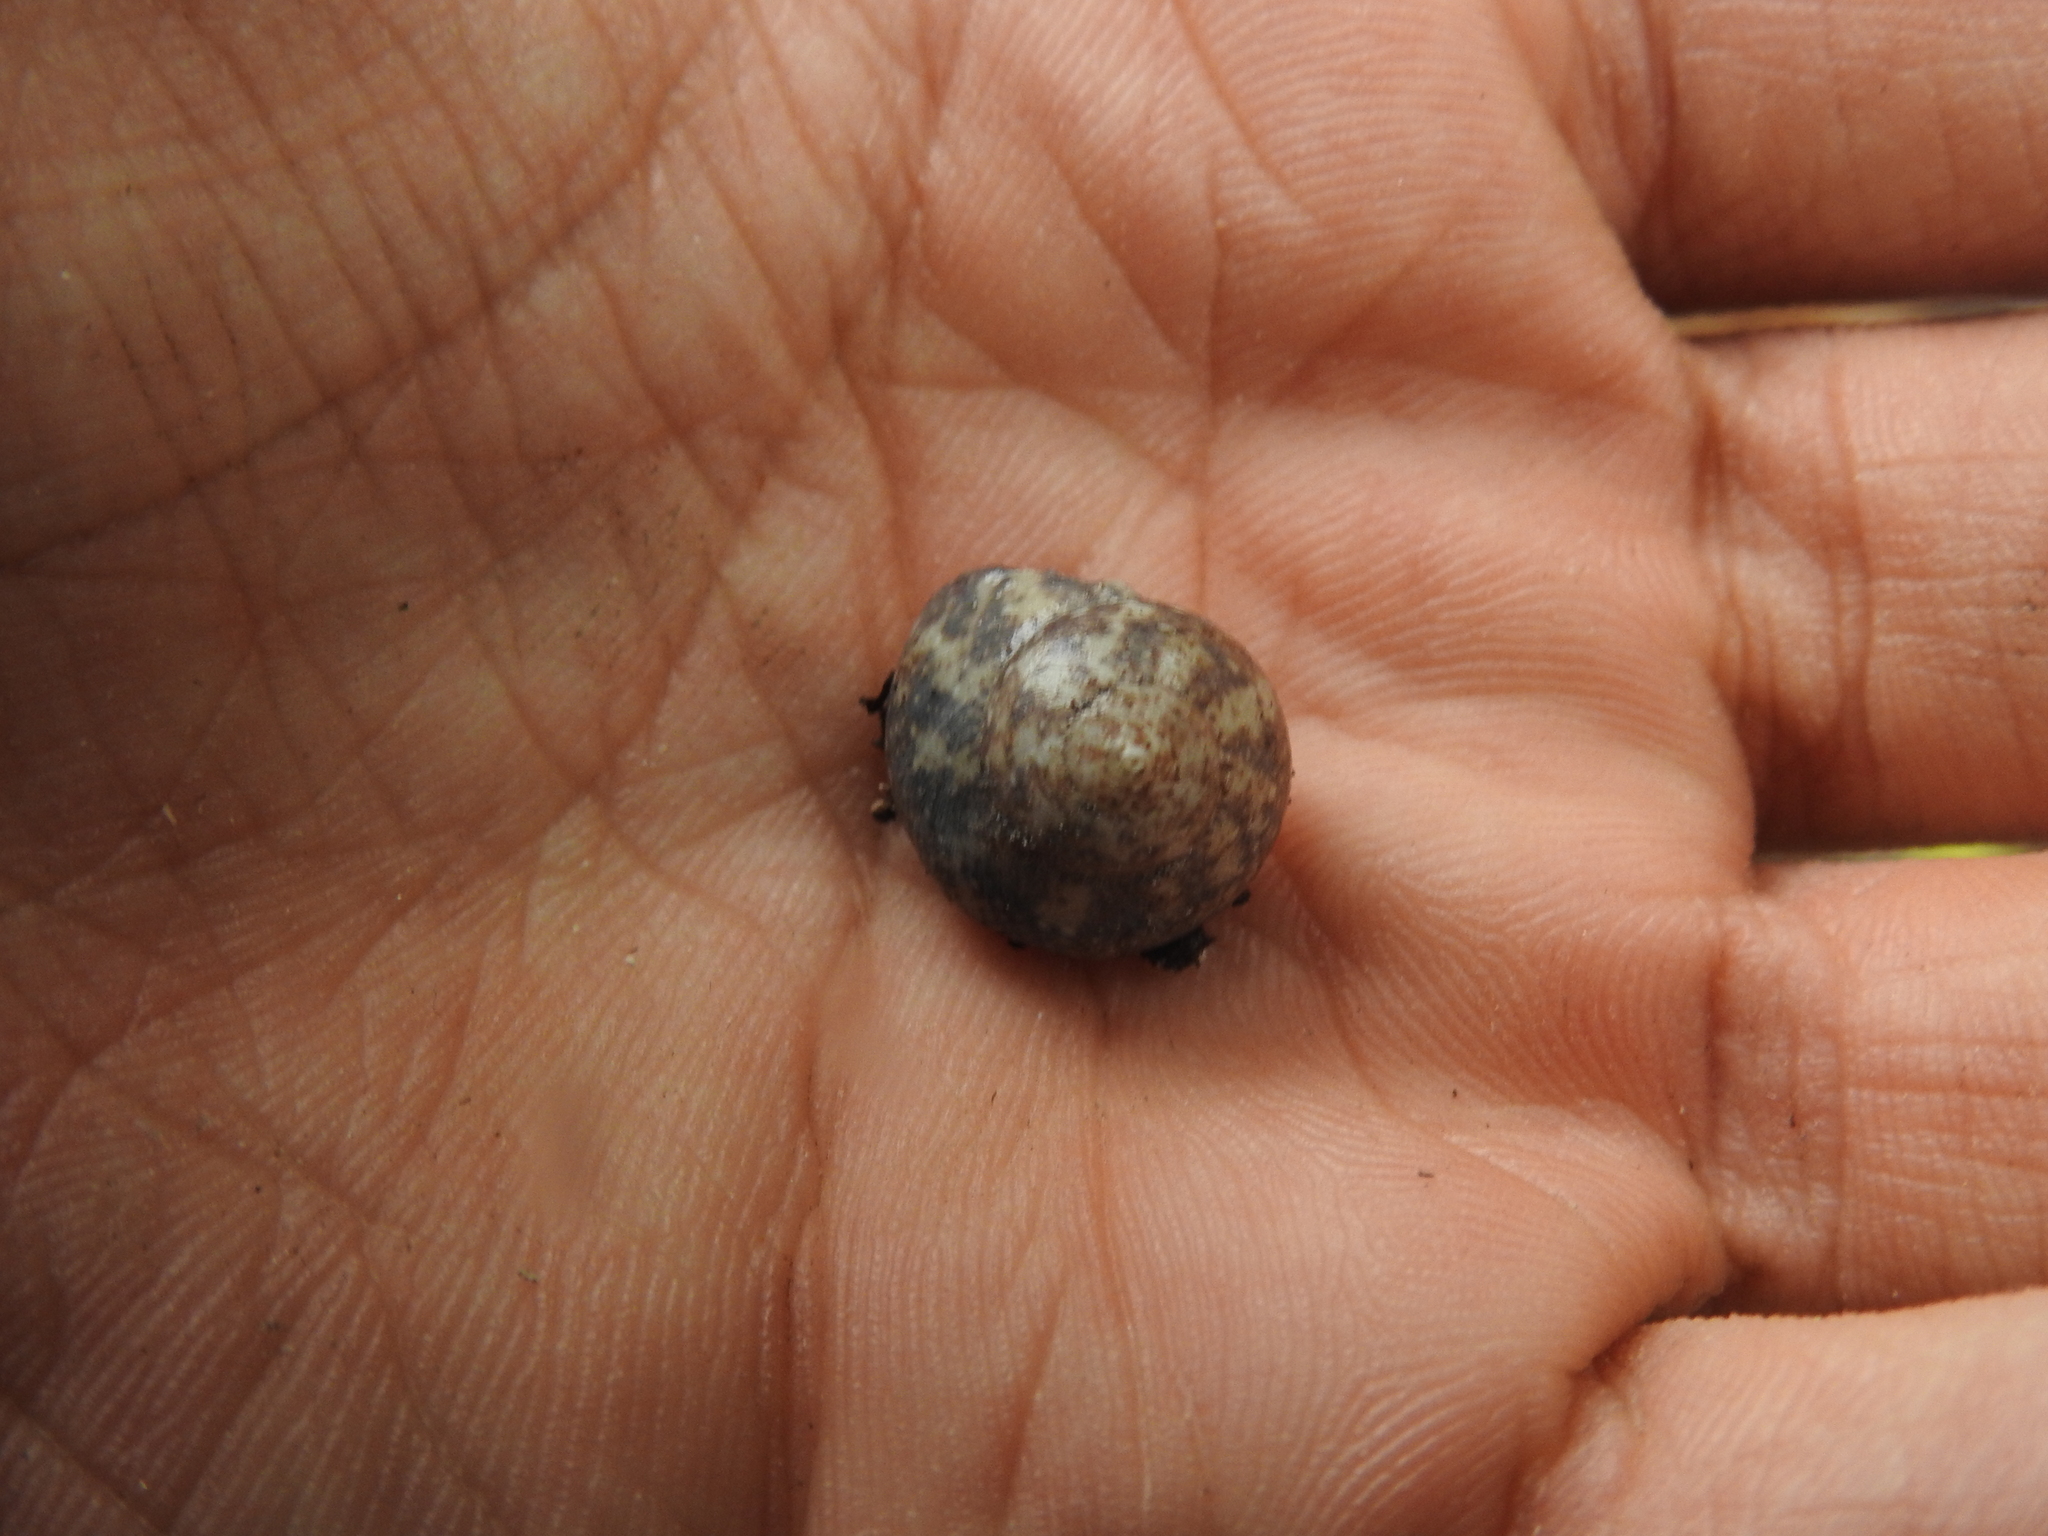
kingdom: Animalia
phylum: Mollusca
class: Gastropoda
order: Trochida
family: Tegulidae
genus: Agathistoma
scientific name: Agathistoma fasciatum
